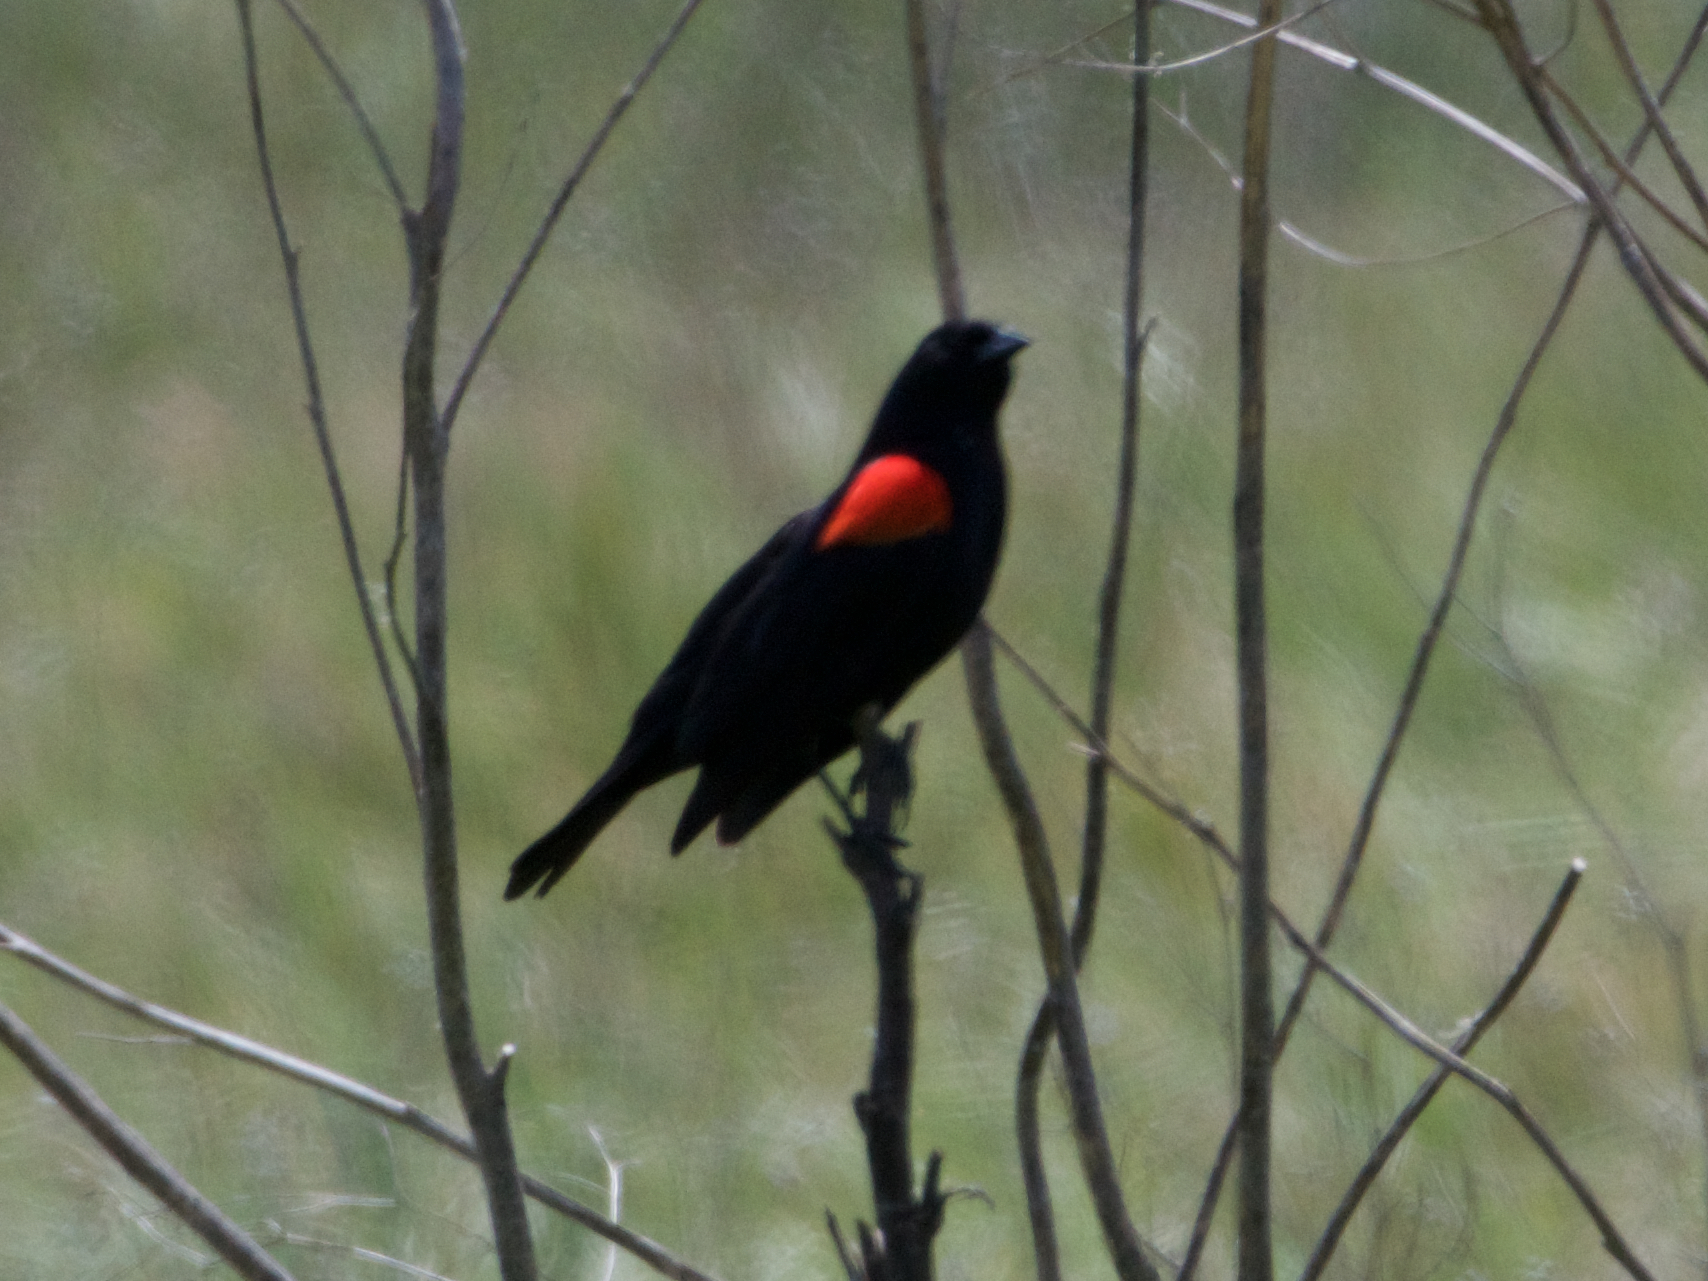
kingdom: Animalia
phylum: Chordata
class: Aves
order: Passeriformes
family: Icteridae
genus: Agelaius
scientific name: Agelaius phoeniceus
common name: Red-winged blackbird
